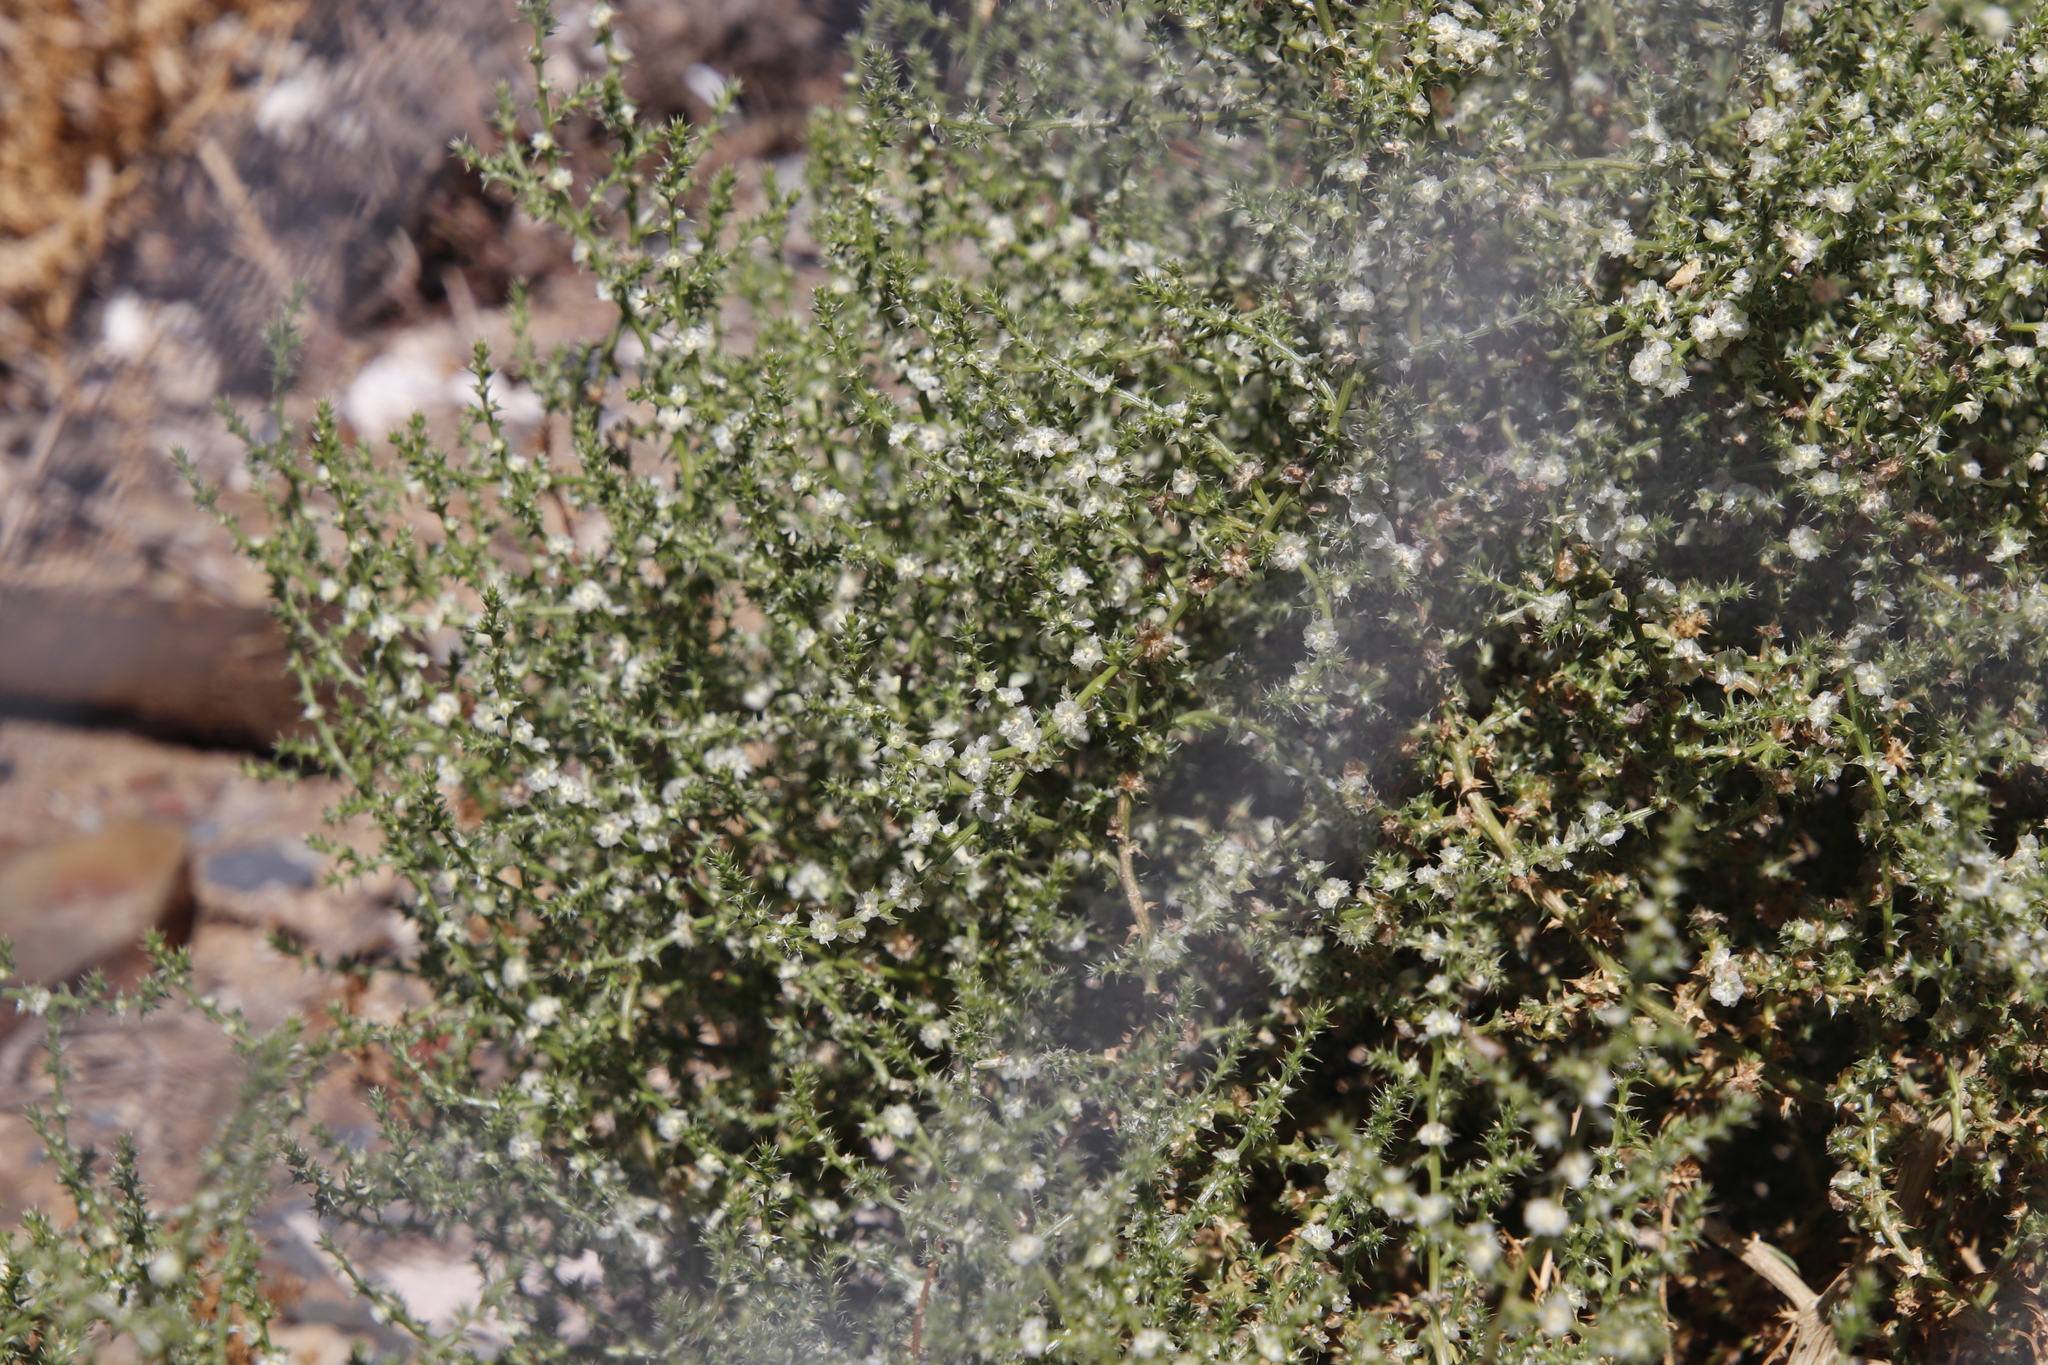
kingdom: Plantae
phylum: Tracheophyta
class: Magnoliopsida
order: Caryophyllales
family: Amaranthaceae
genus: Salsola
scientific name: Salsola kali
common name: Saltwort
